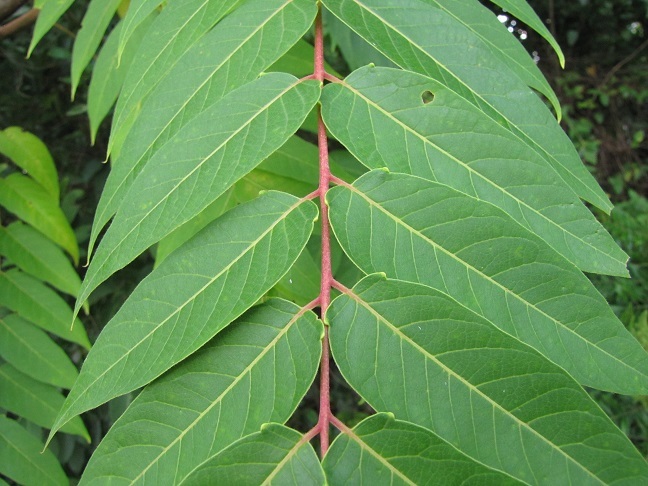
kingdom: Plantae
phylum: Tracheophyta
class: Magnoliopsida
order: Sapindales
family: Simaroubaceae
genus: Ailanthus
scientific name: Ailanthus altissima
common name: Tree-of-heaven
